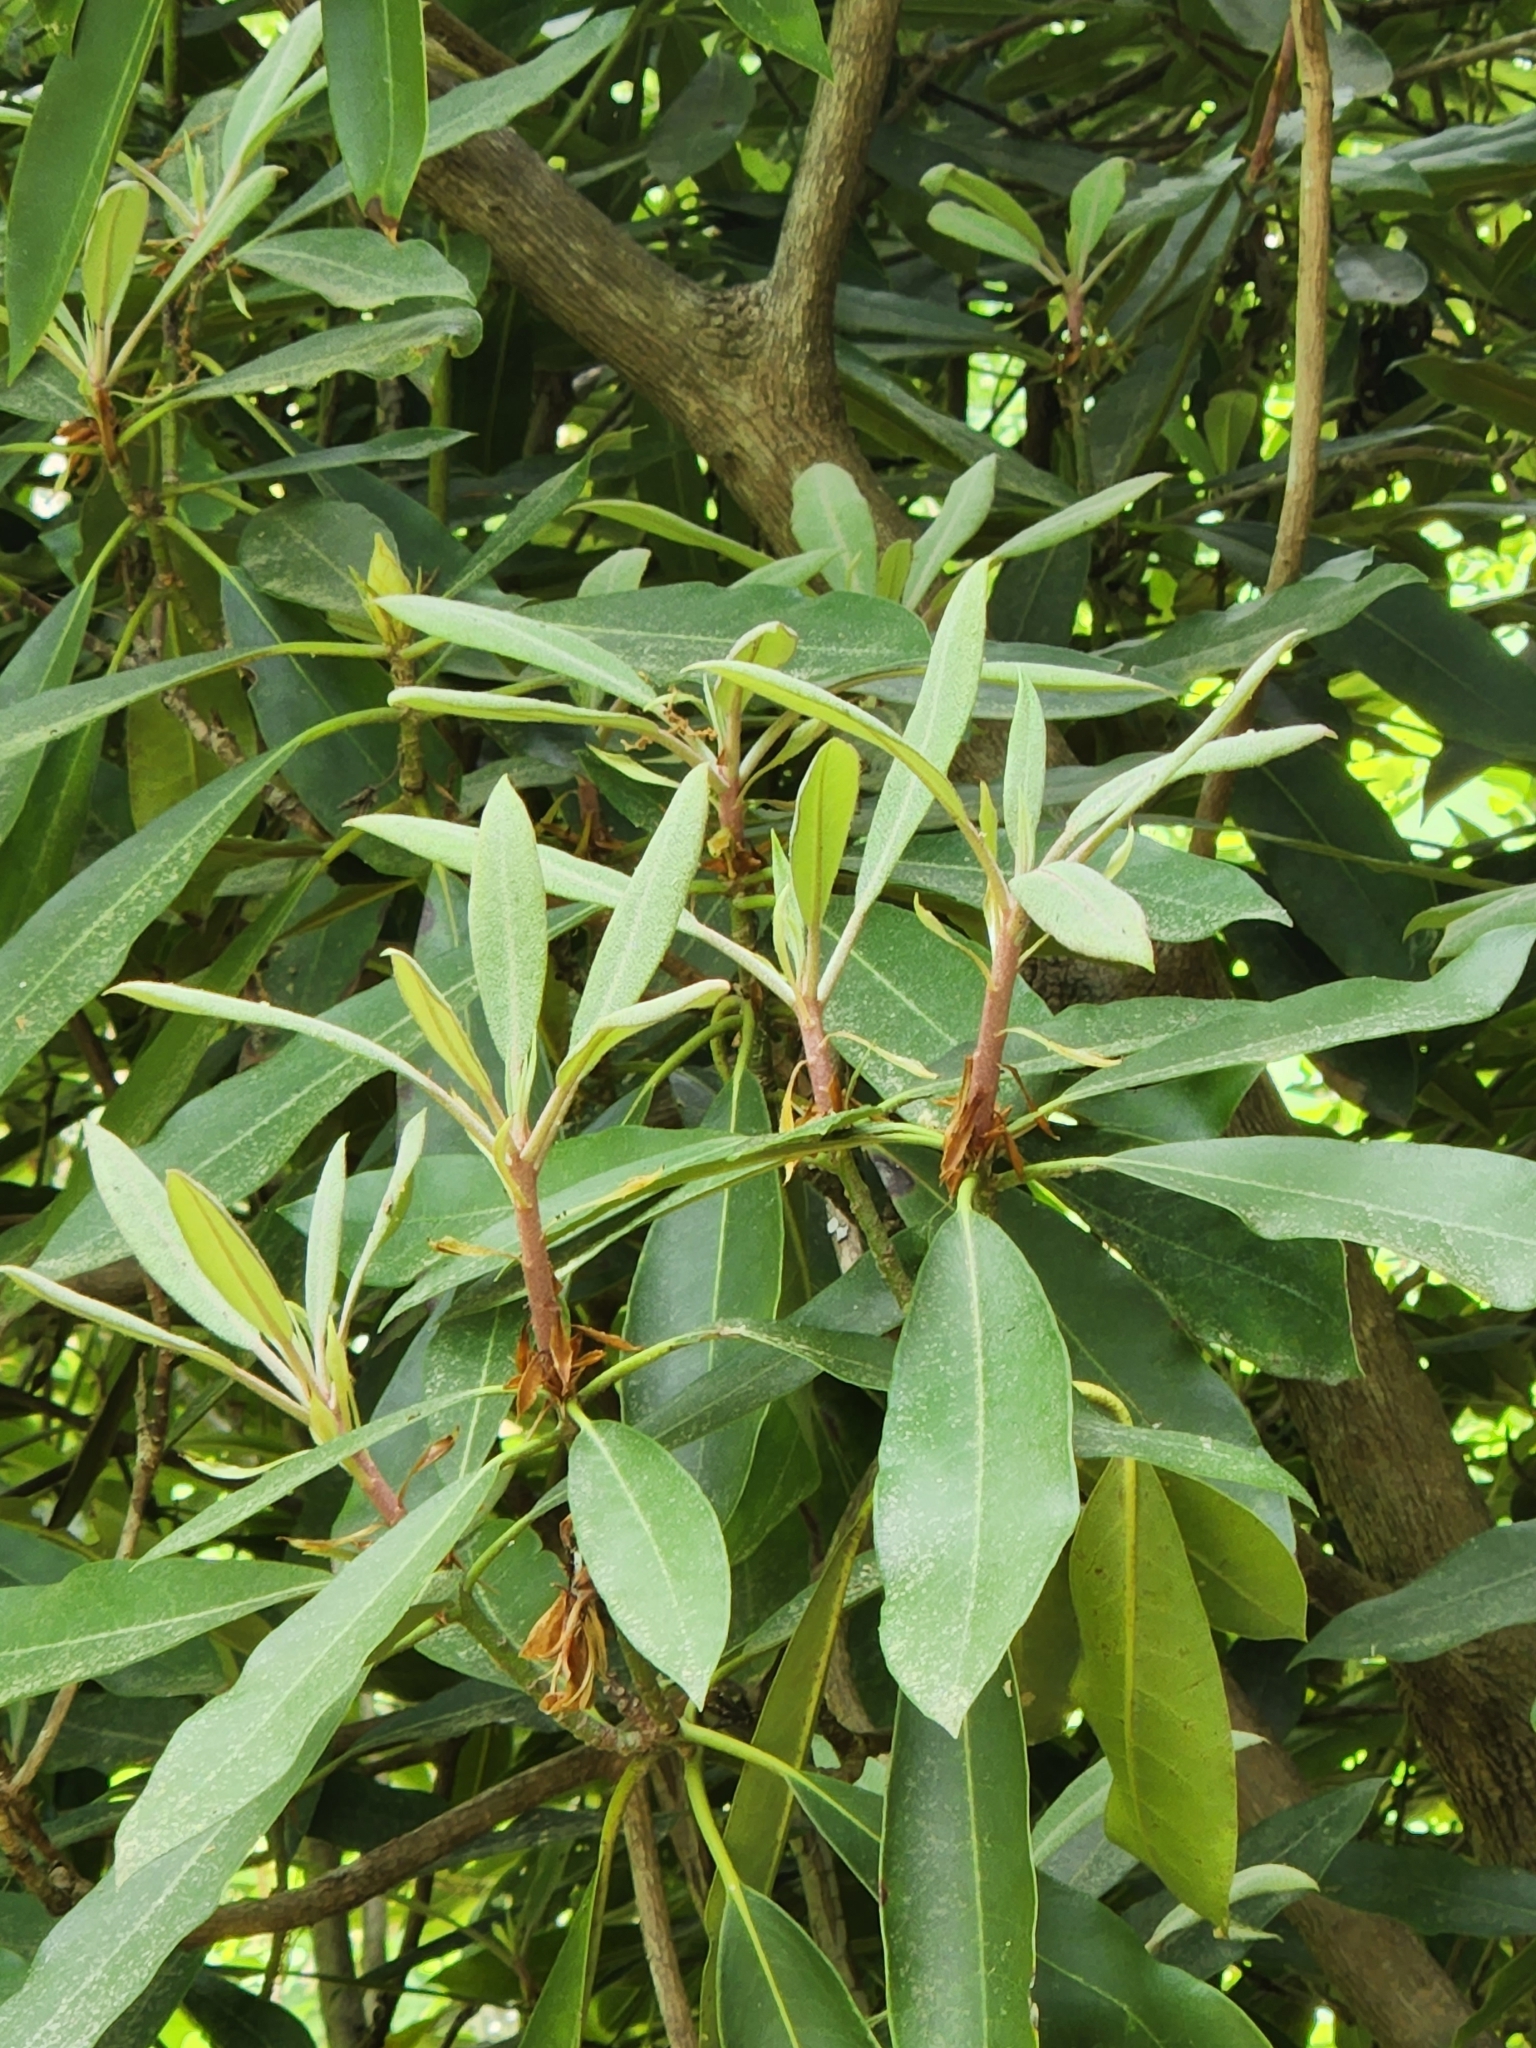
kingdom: Plantae
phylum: Tracheophyta
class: Magnoliopsida
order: Ericales
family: Ericaceae
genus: Rhododendron
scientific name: Rhododendron maximum
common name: Great rhododendron
